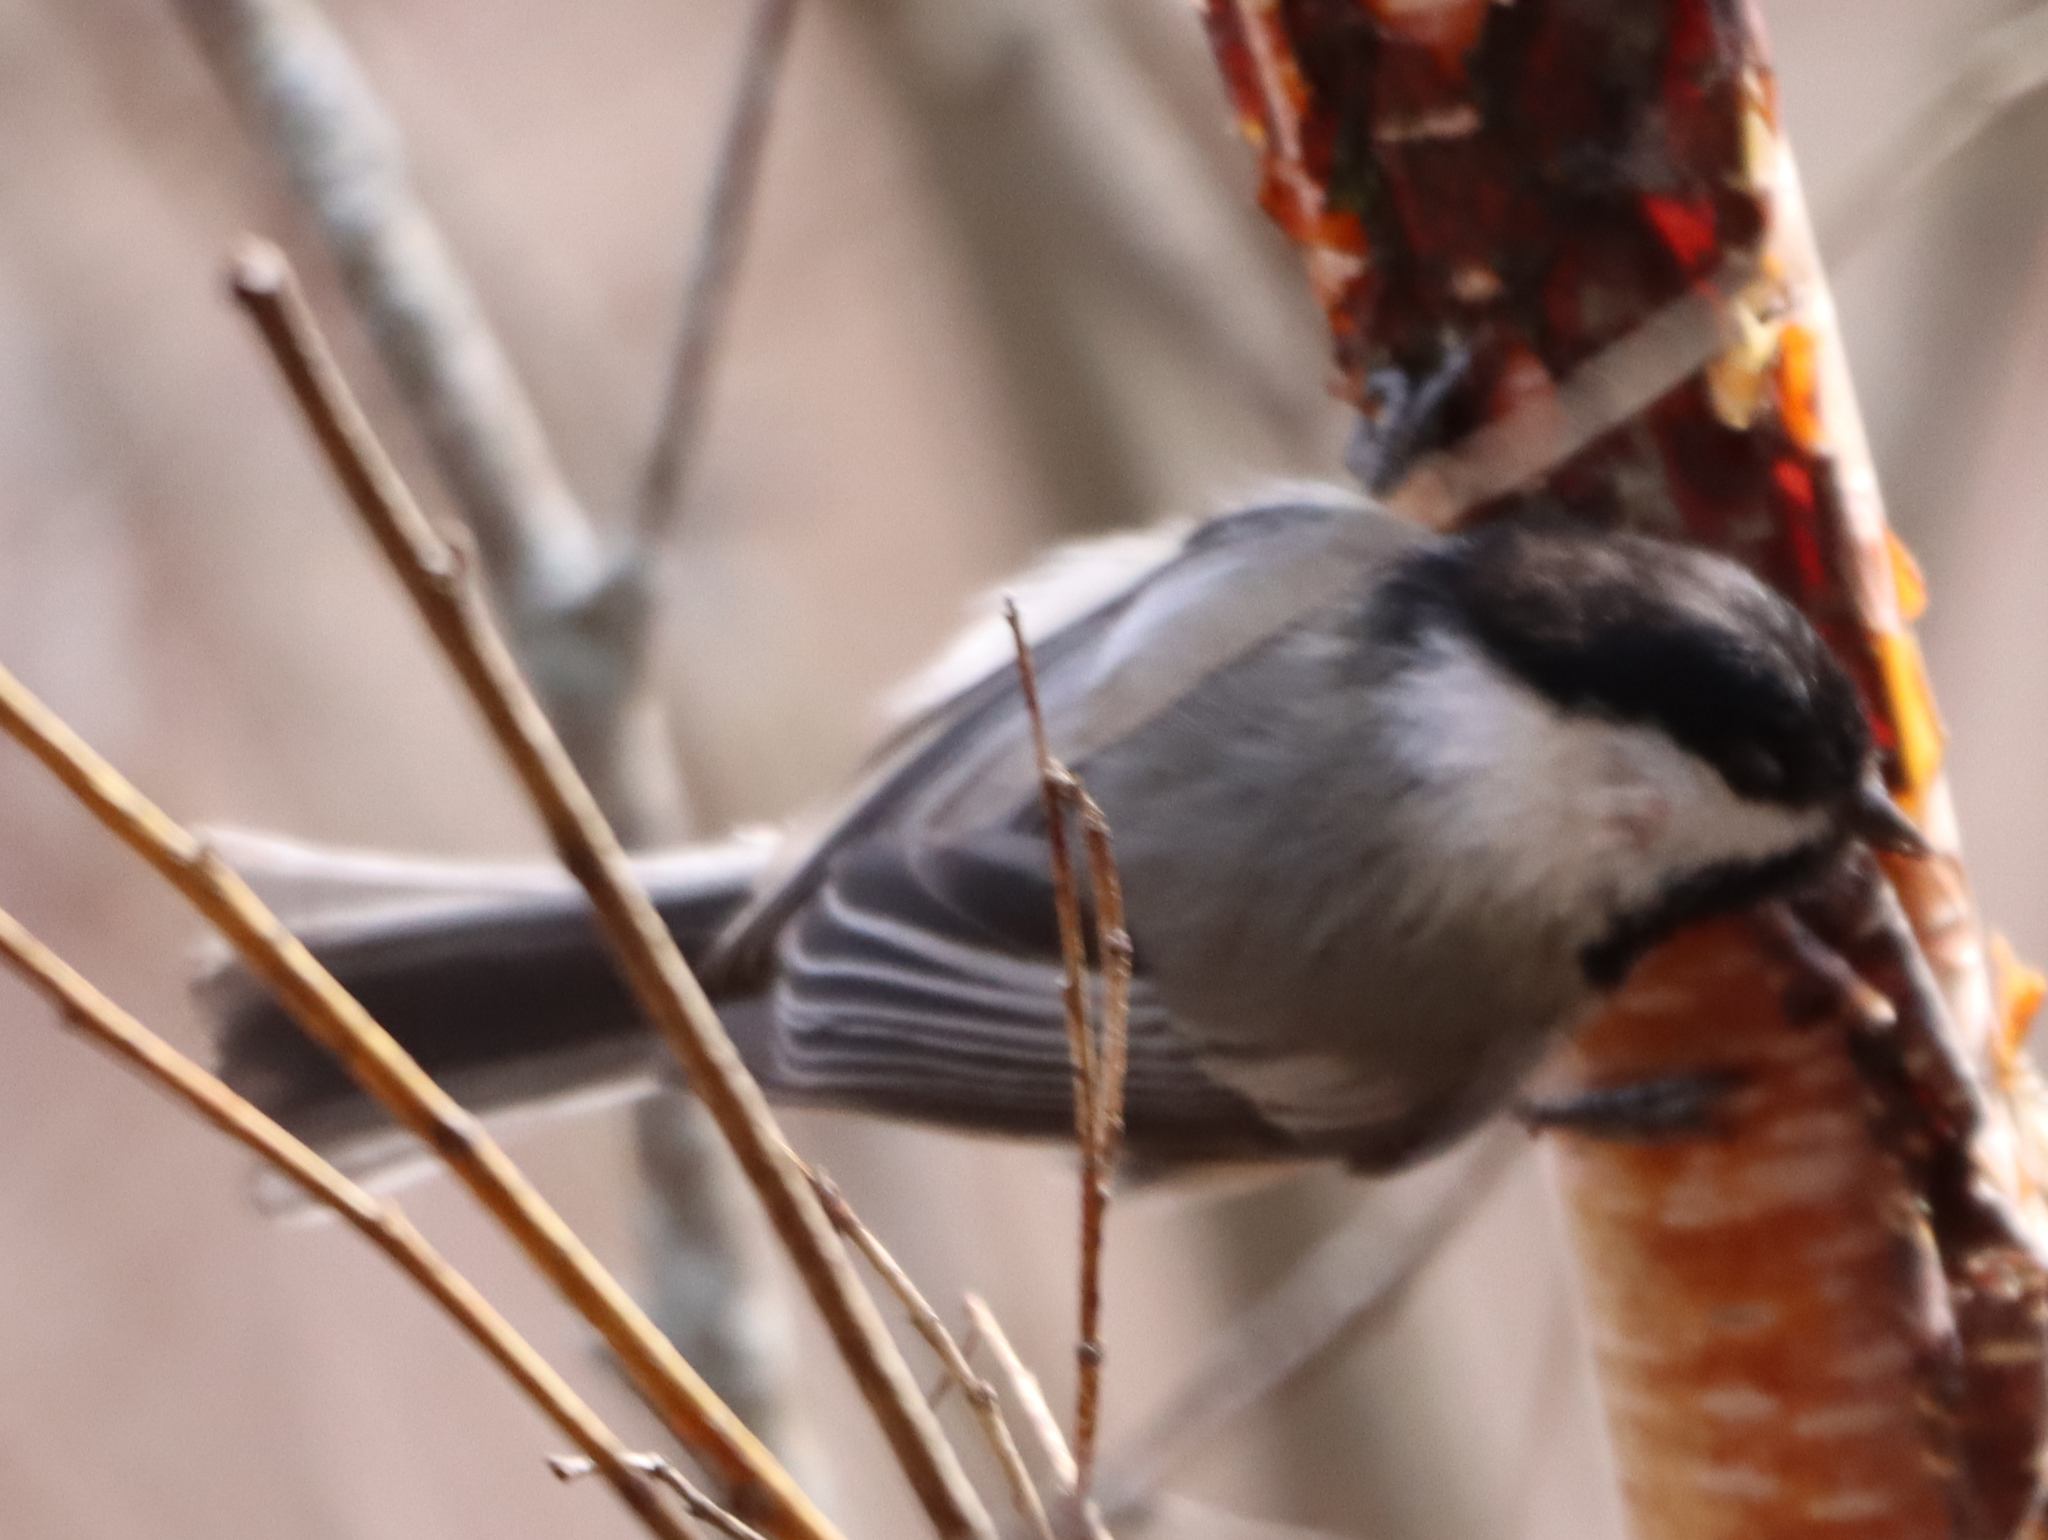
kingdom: Animalia
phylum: Chordata
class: Aves
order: Passeriformes
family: Paridae
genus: Poecile
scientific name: Poecile atricapillus
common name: Black-capped chickadee
